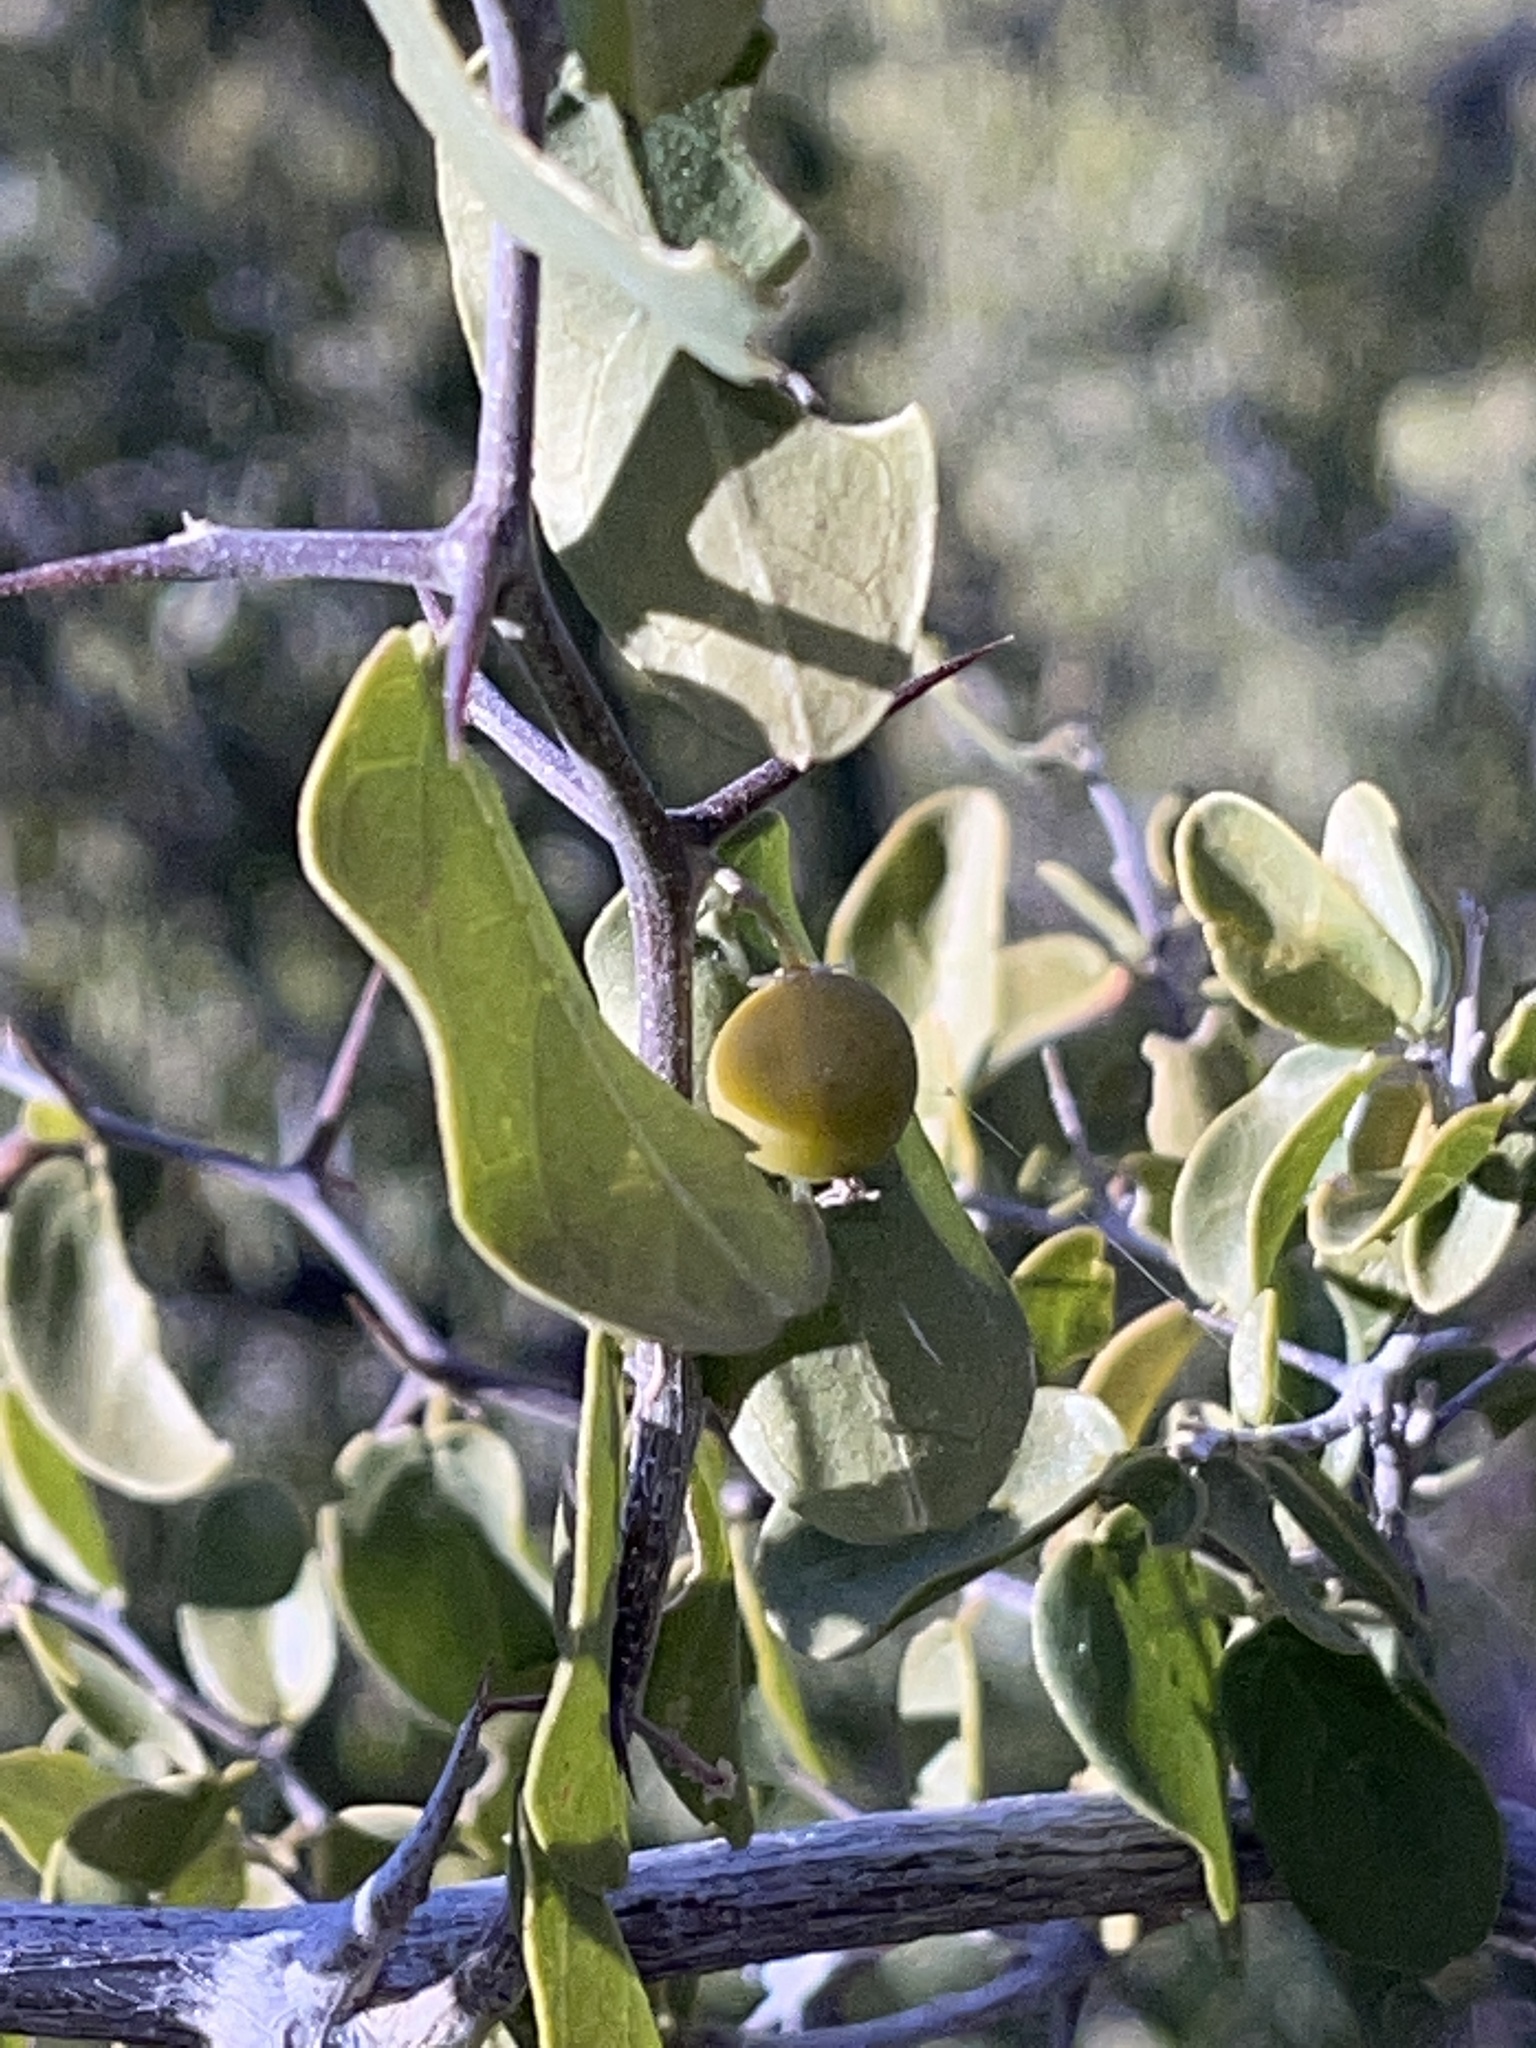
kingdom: Plantae
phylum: Tracheophyta
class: Magnoliopsida
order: Rosales
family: Cannabaceae
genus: Celtis
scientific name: Celtis pallida
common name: Desert hackberry
